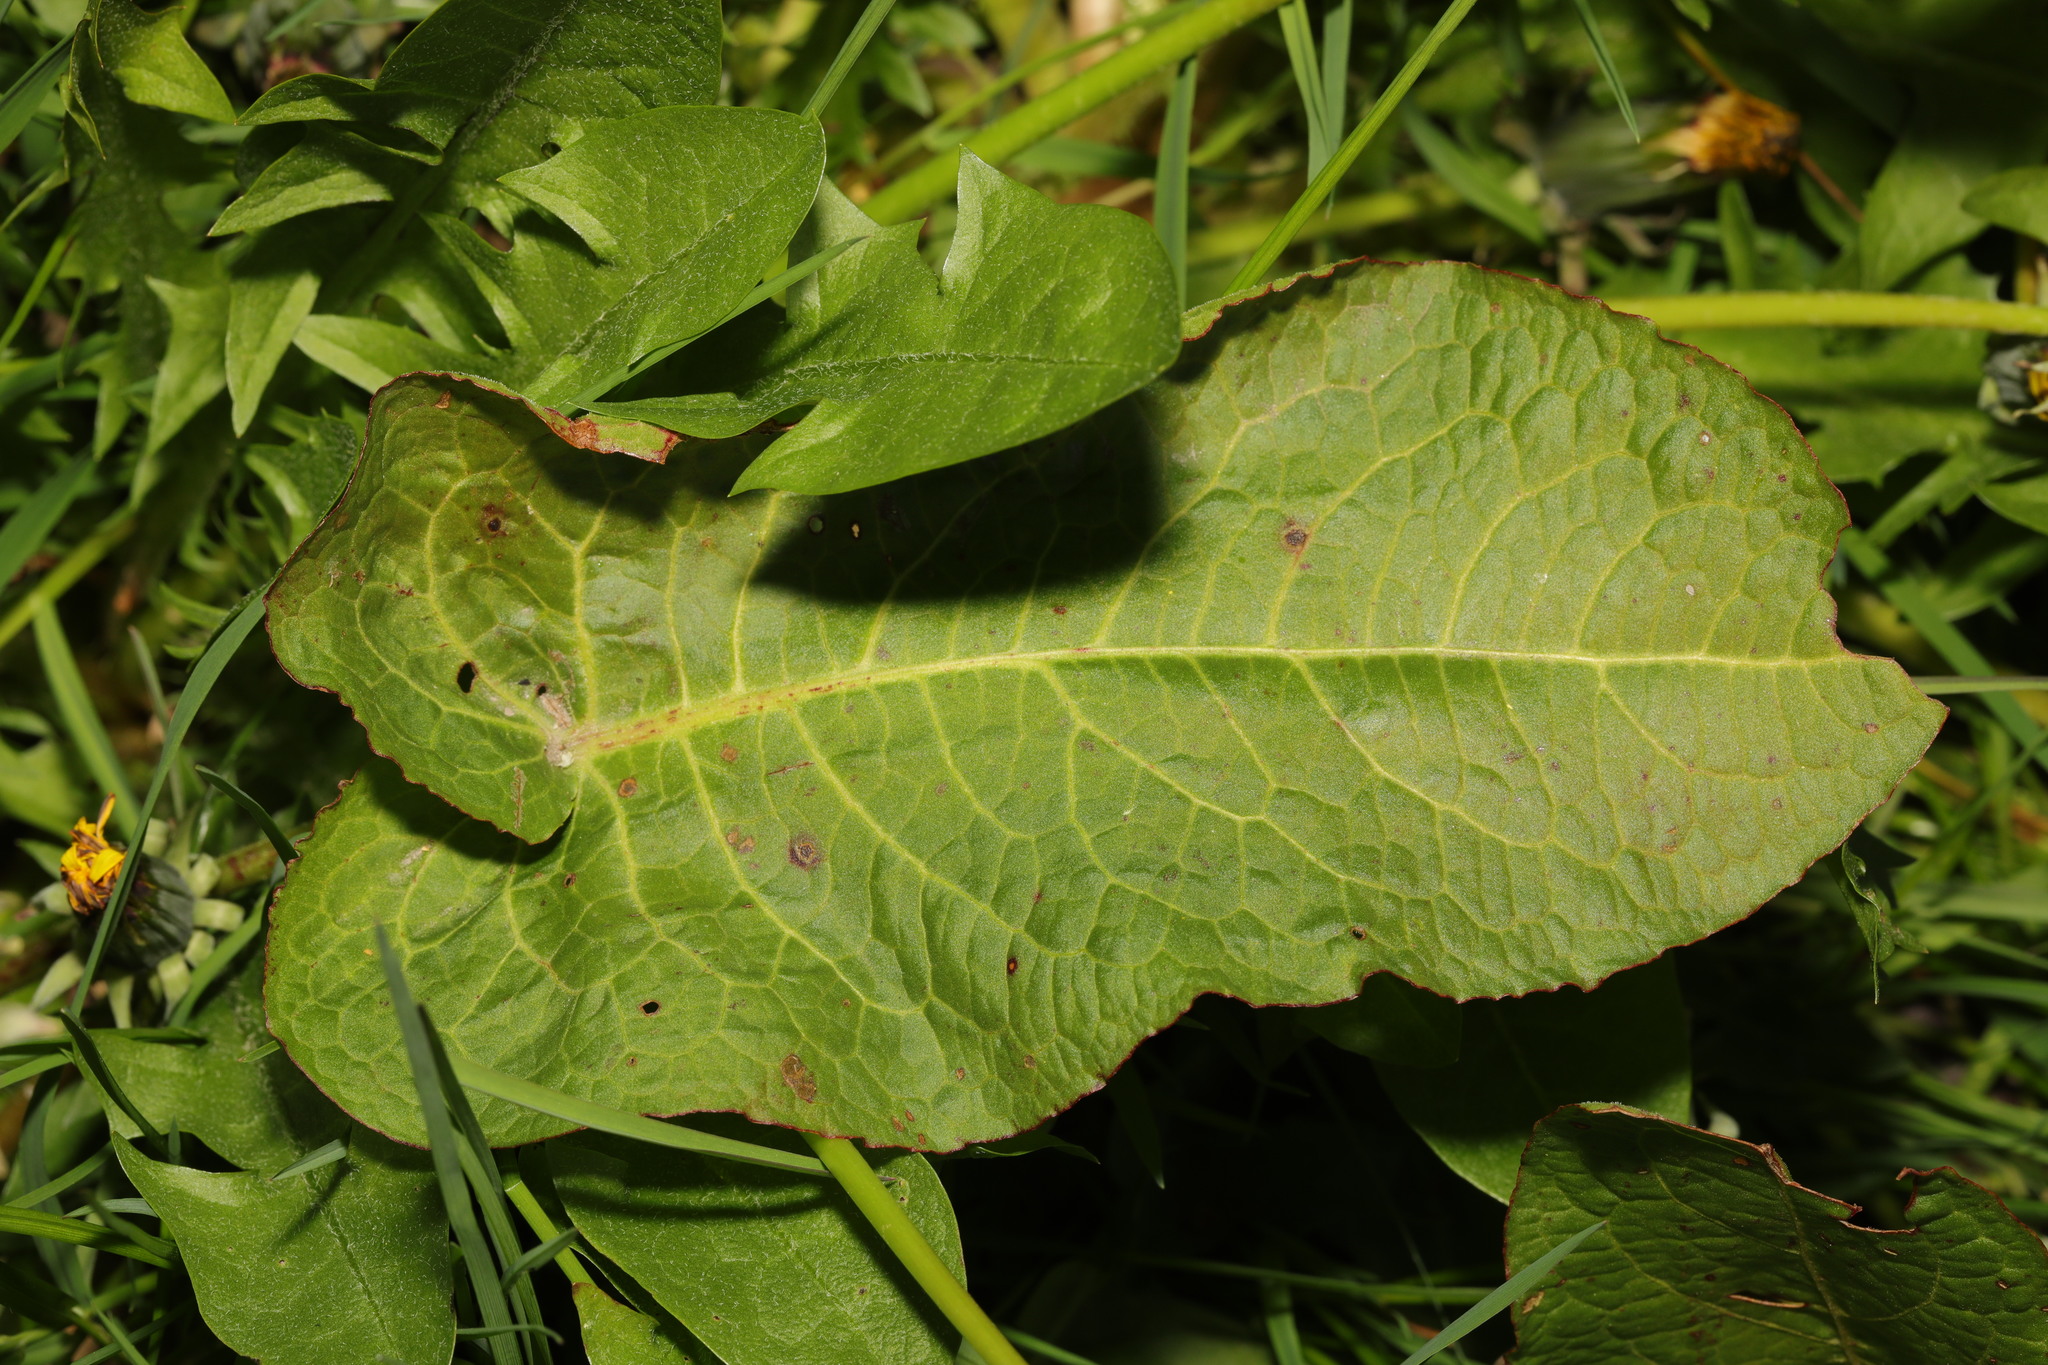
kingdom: Plantae
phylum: Tracheophyta
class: Magnoliopsida
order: Caryophyllales
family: Polygonaceae
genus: Rumex
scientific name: Rumex obtusifolius
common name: Bitter dock
